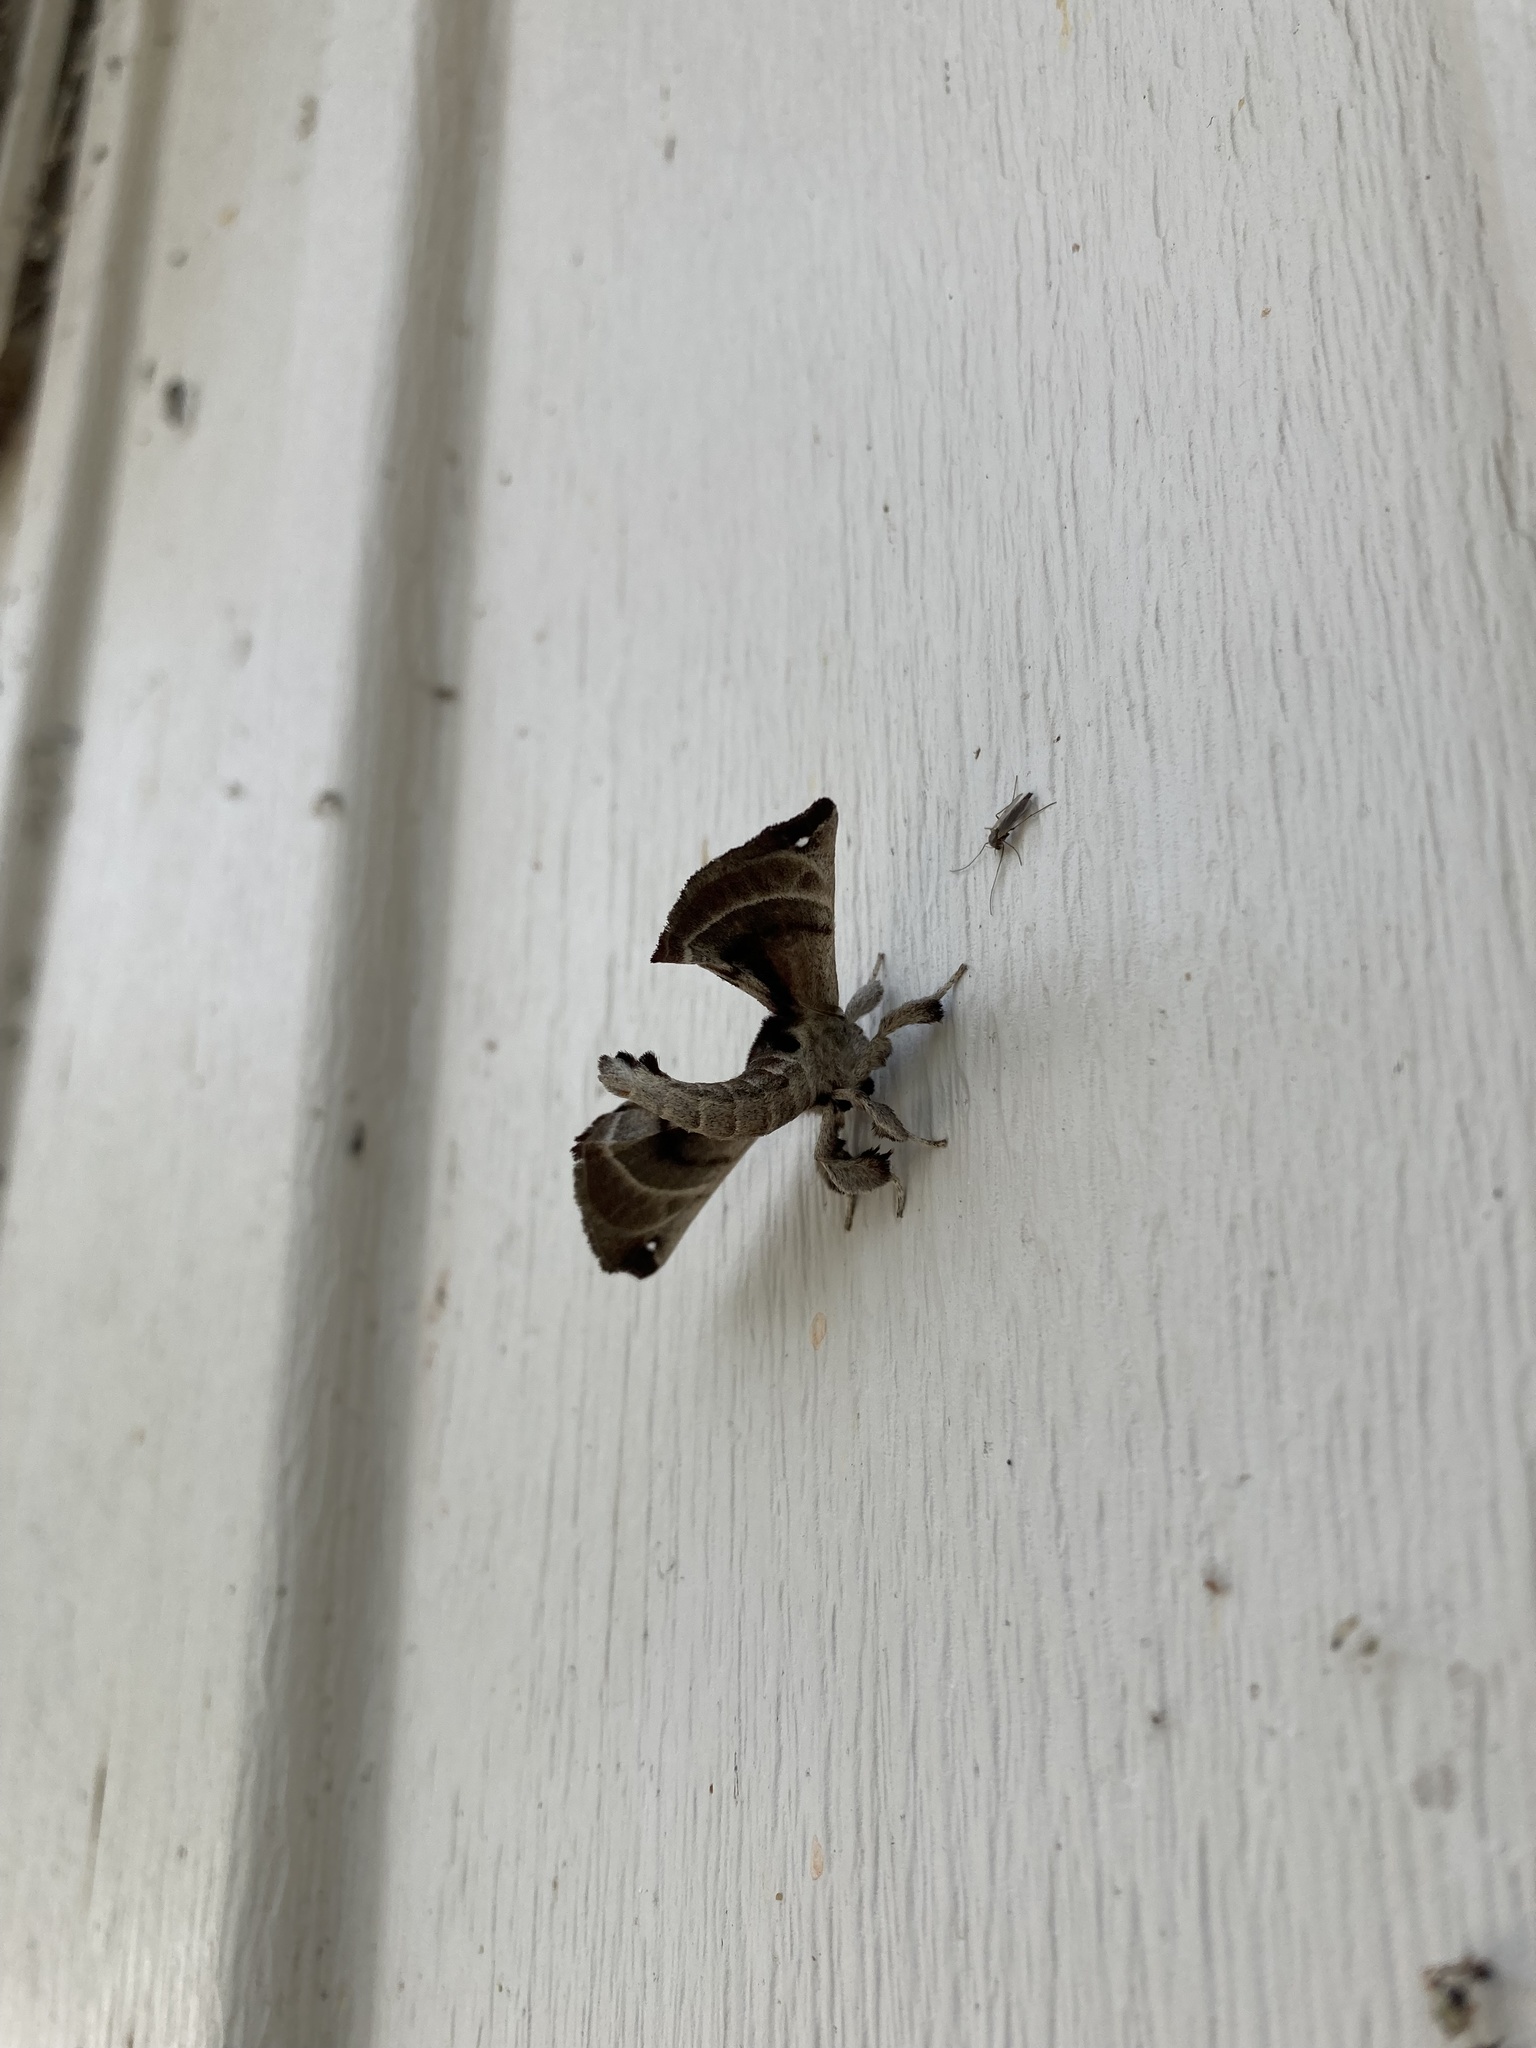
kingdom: Animalia
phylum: Arthropoda
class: Insecta
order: Lepidoptera
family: Apatelodidae
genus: Hygrochroa
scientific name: Hygrochroa Apatelodes torrefacta
